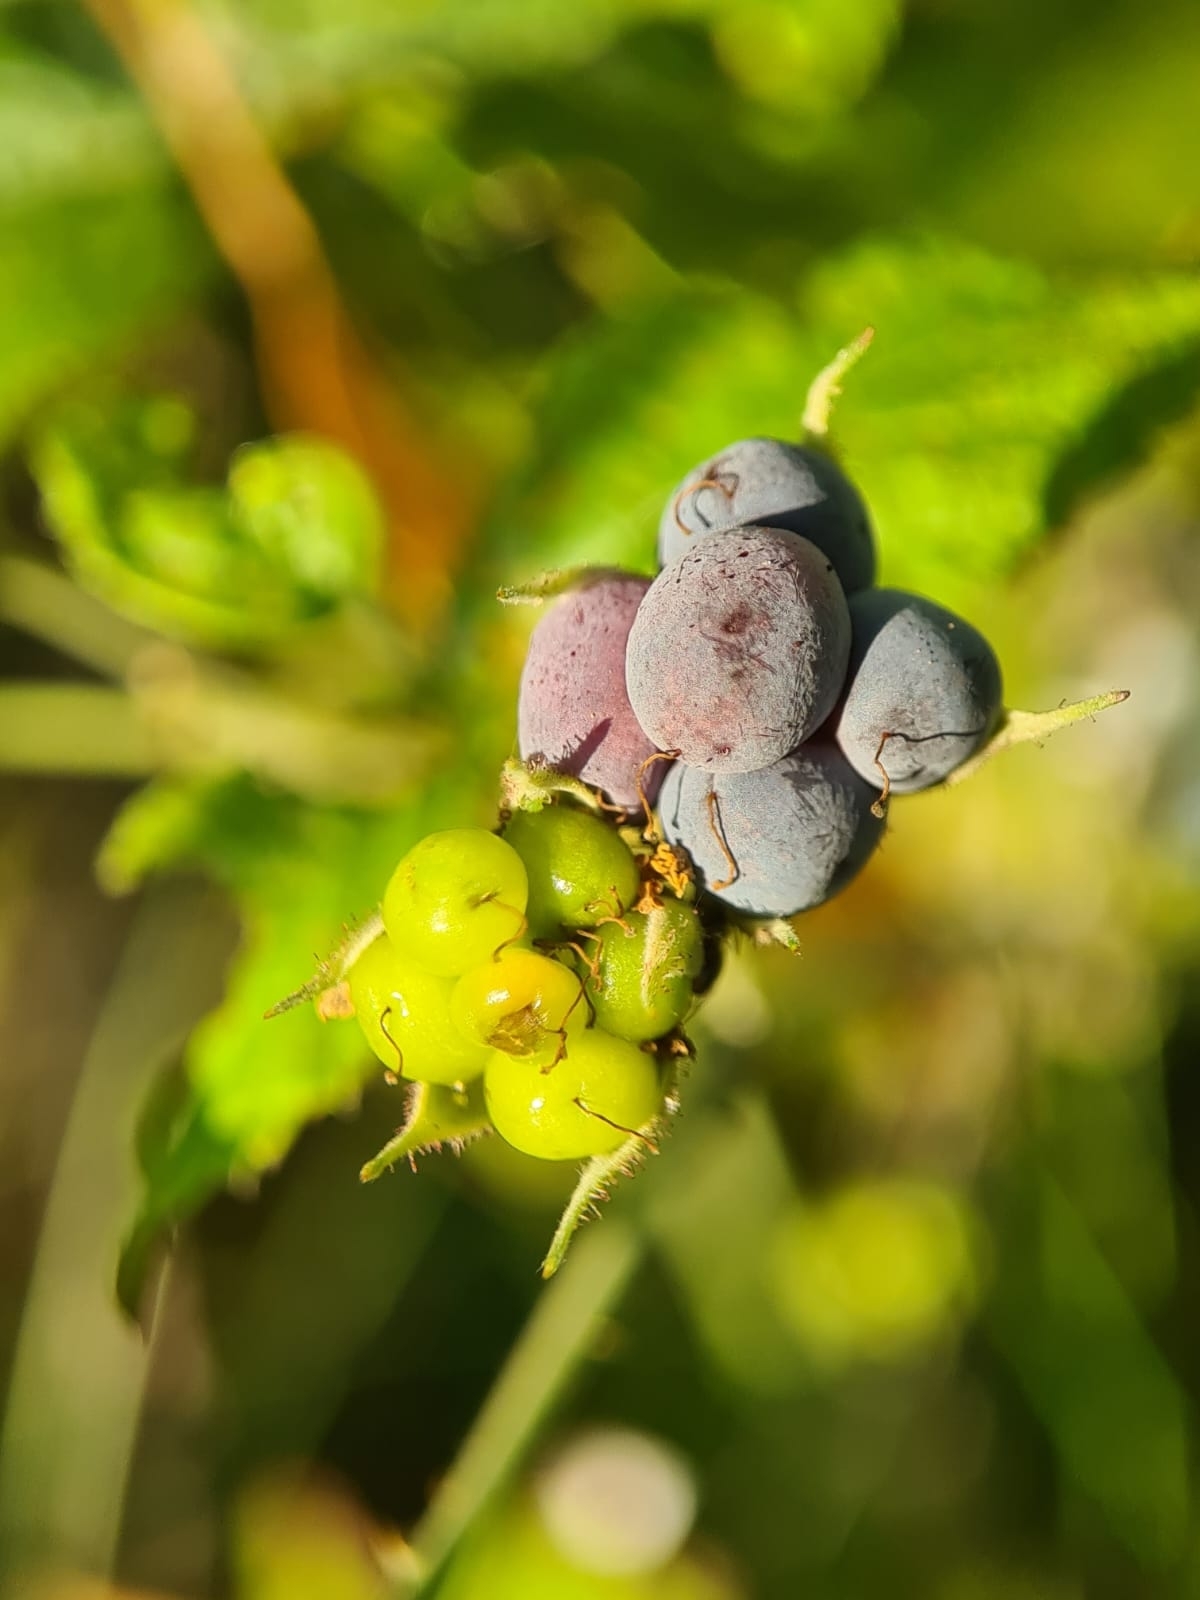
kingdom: Plantae
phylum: Tracheophyta
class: Magnoliopsida
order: Rosales
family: Rosaceae
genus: Rubus
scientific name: Rubus caesius
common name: Dewberry
